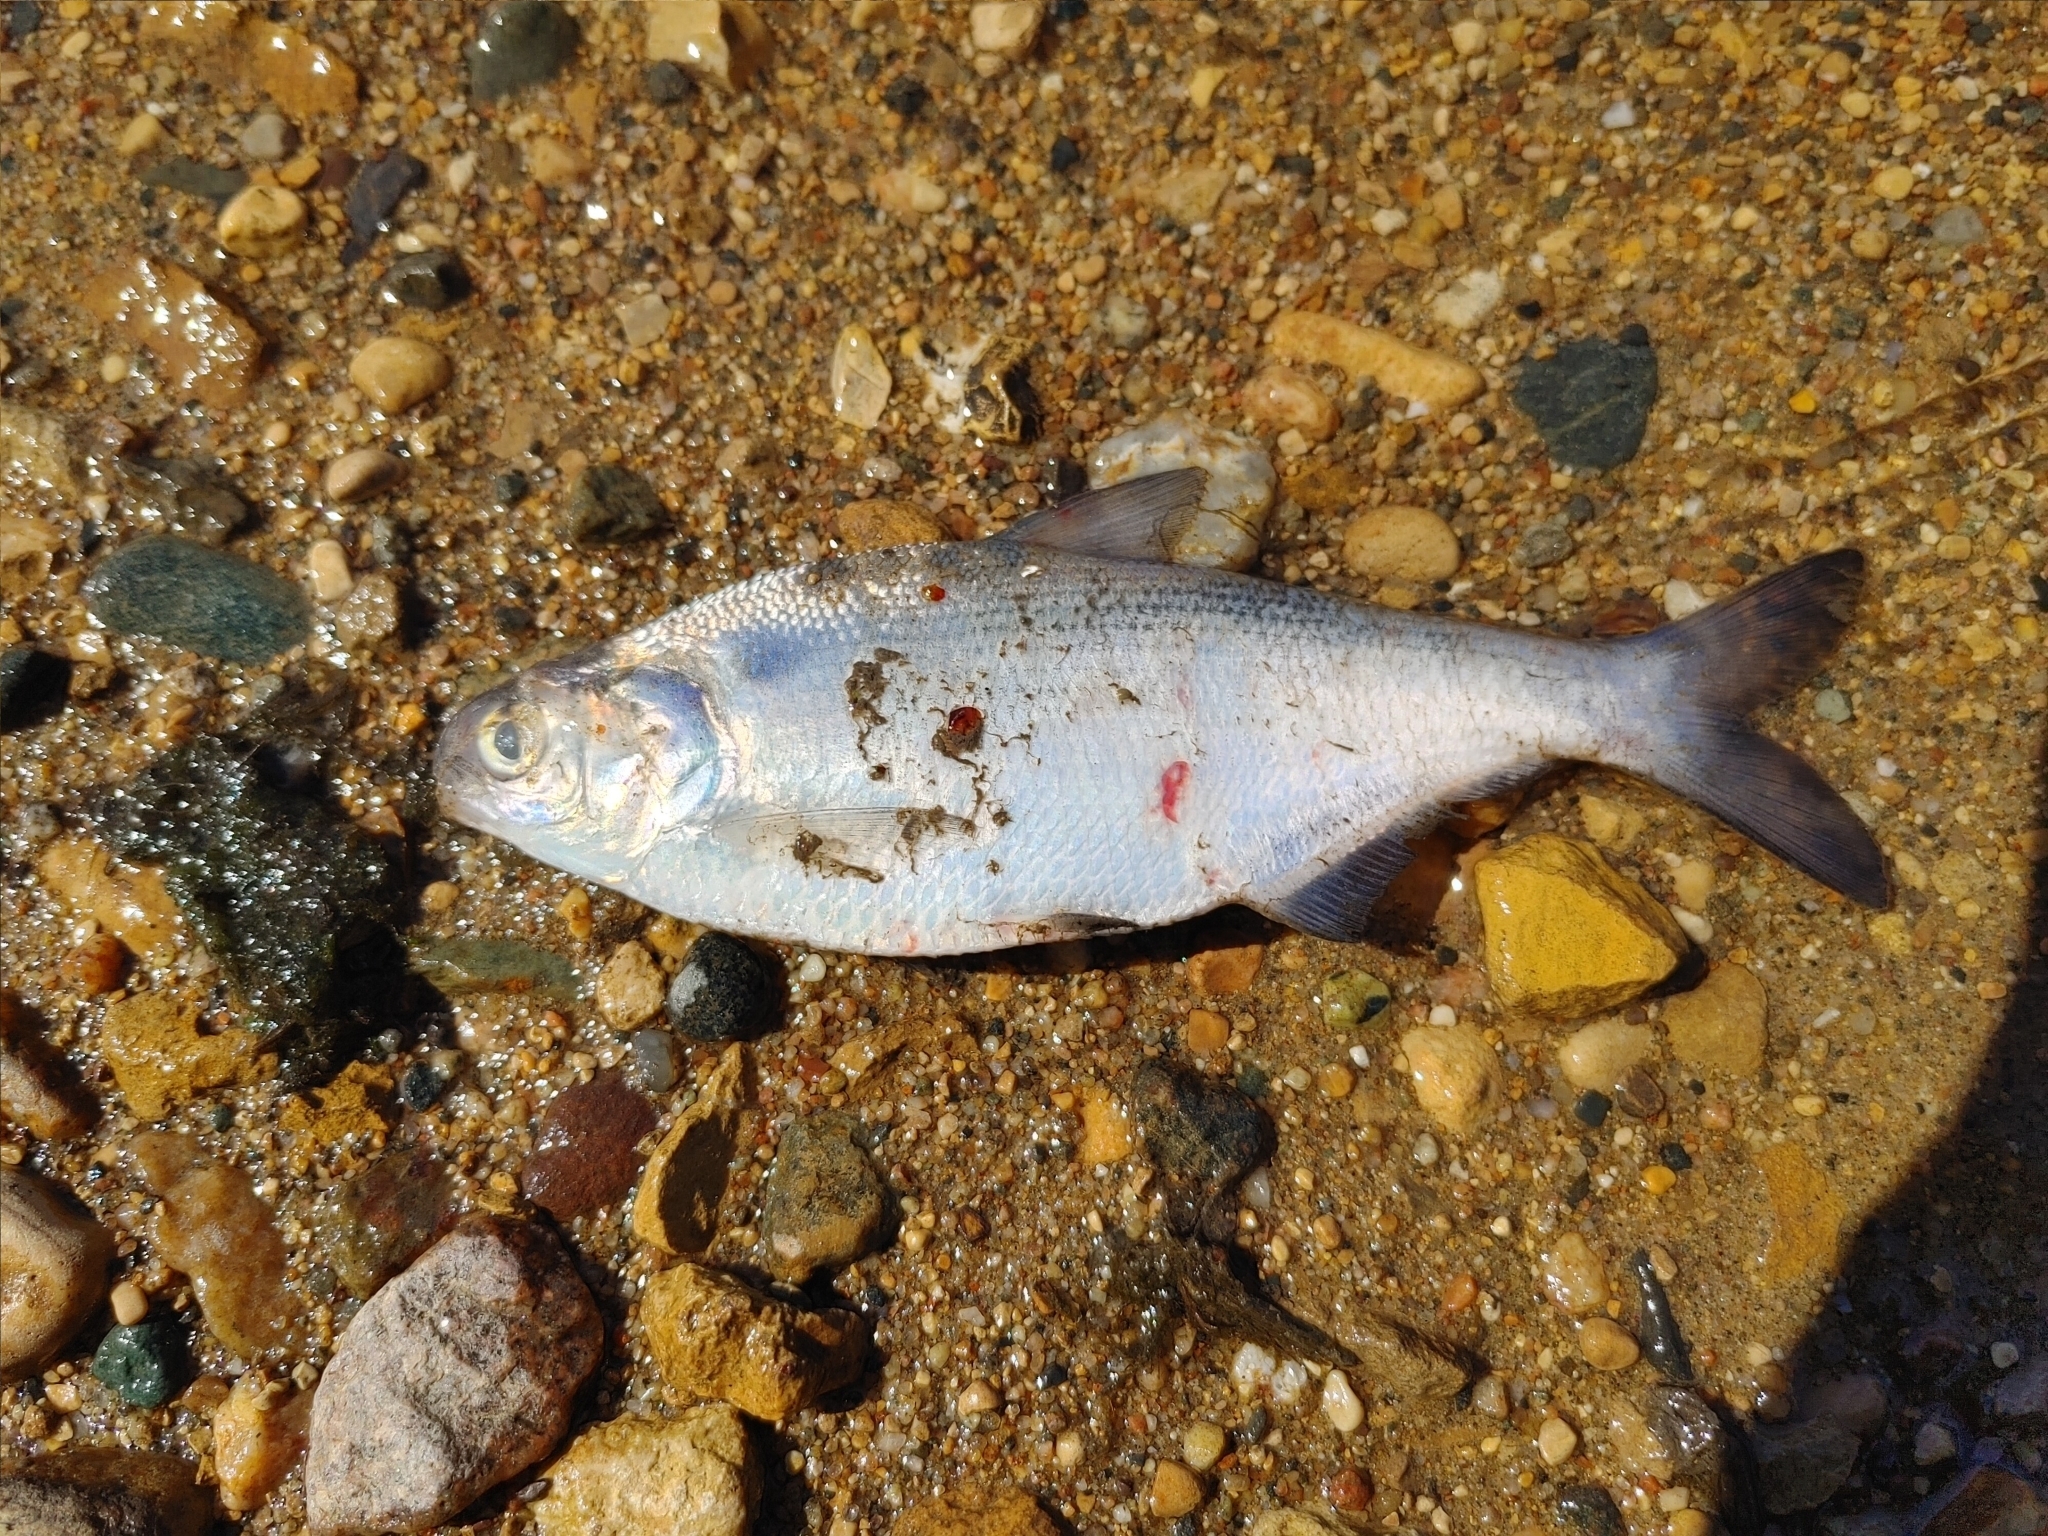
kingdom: Animalia
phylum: Chordata
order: Clupeiformes
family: Clupeidae
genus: Dorosoma
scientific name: Dorosoma cepedianum
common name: Gizzard shad
